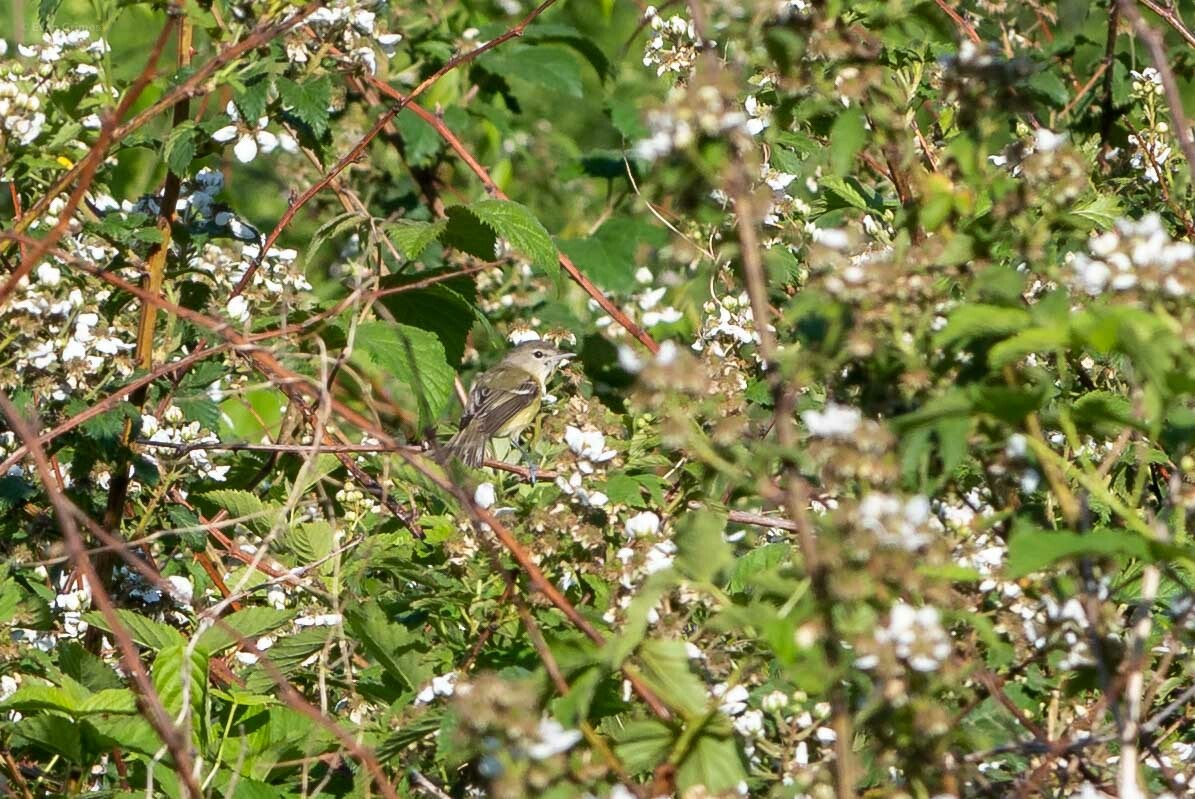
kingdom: Animalia
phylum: Chordata
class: Aves
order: Passeriformes
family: Vireonidae
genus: Vireo
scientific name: Vireo bellii
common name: Bell's vireo
